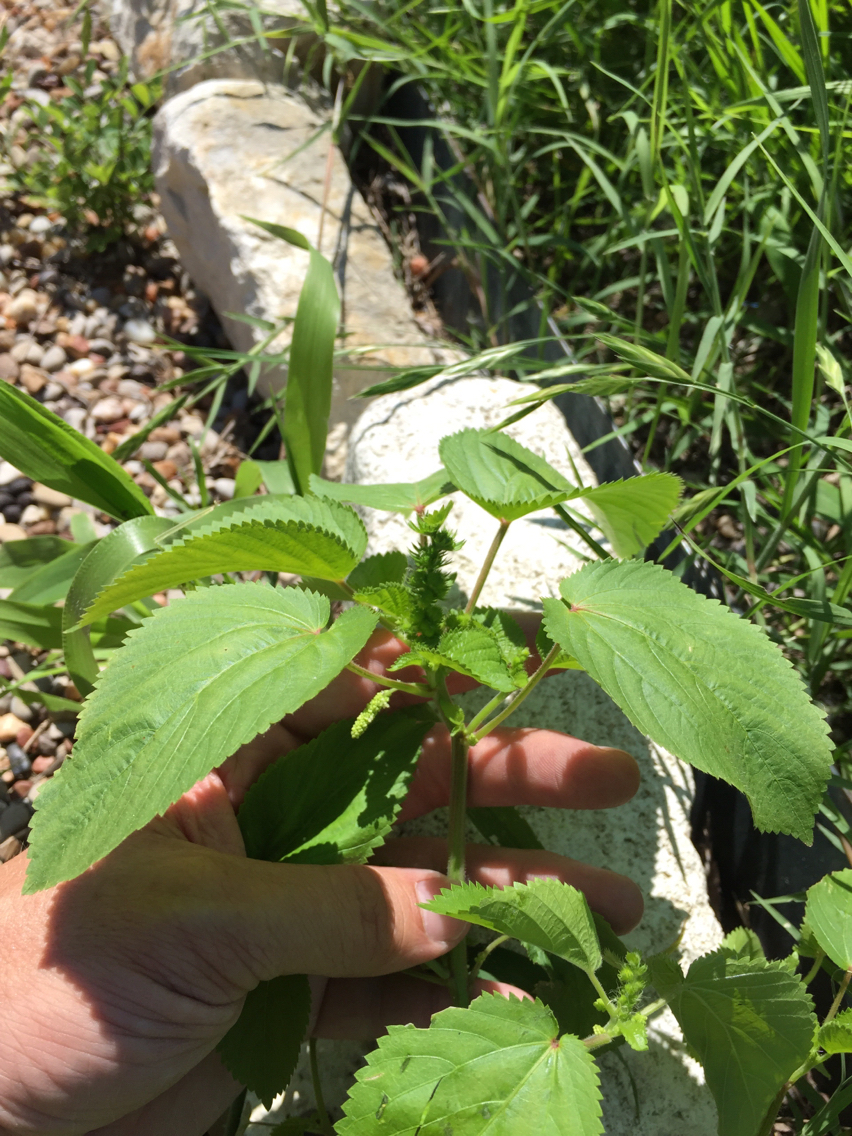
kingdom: Plantae
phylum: Tracheophyta
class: Magnoliopsida
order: Malpighiales
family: Euphorbiaceae
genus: Acalypha
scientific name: Acalypha ostryifolia
